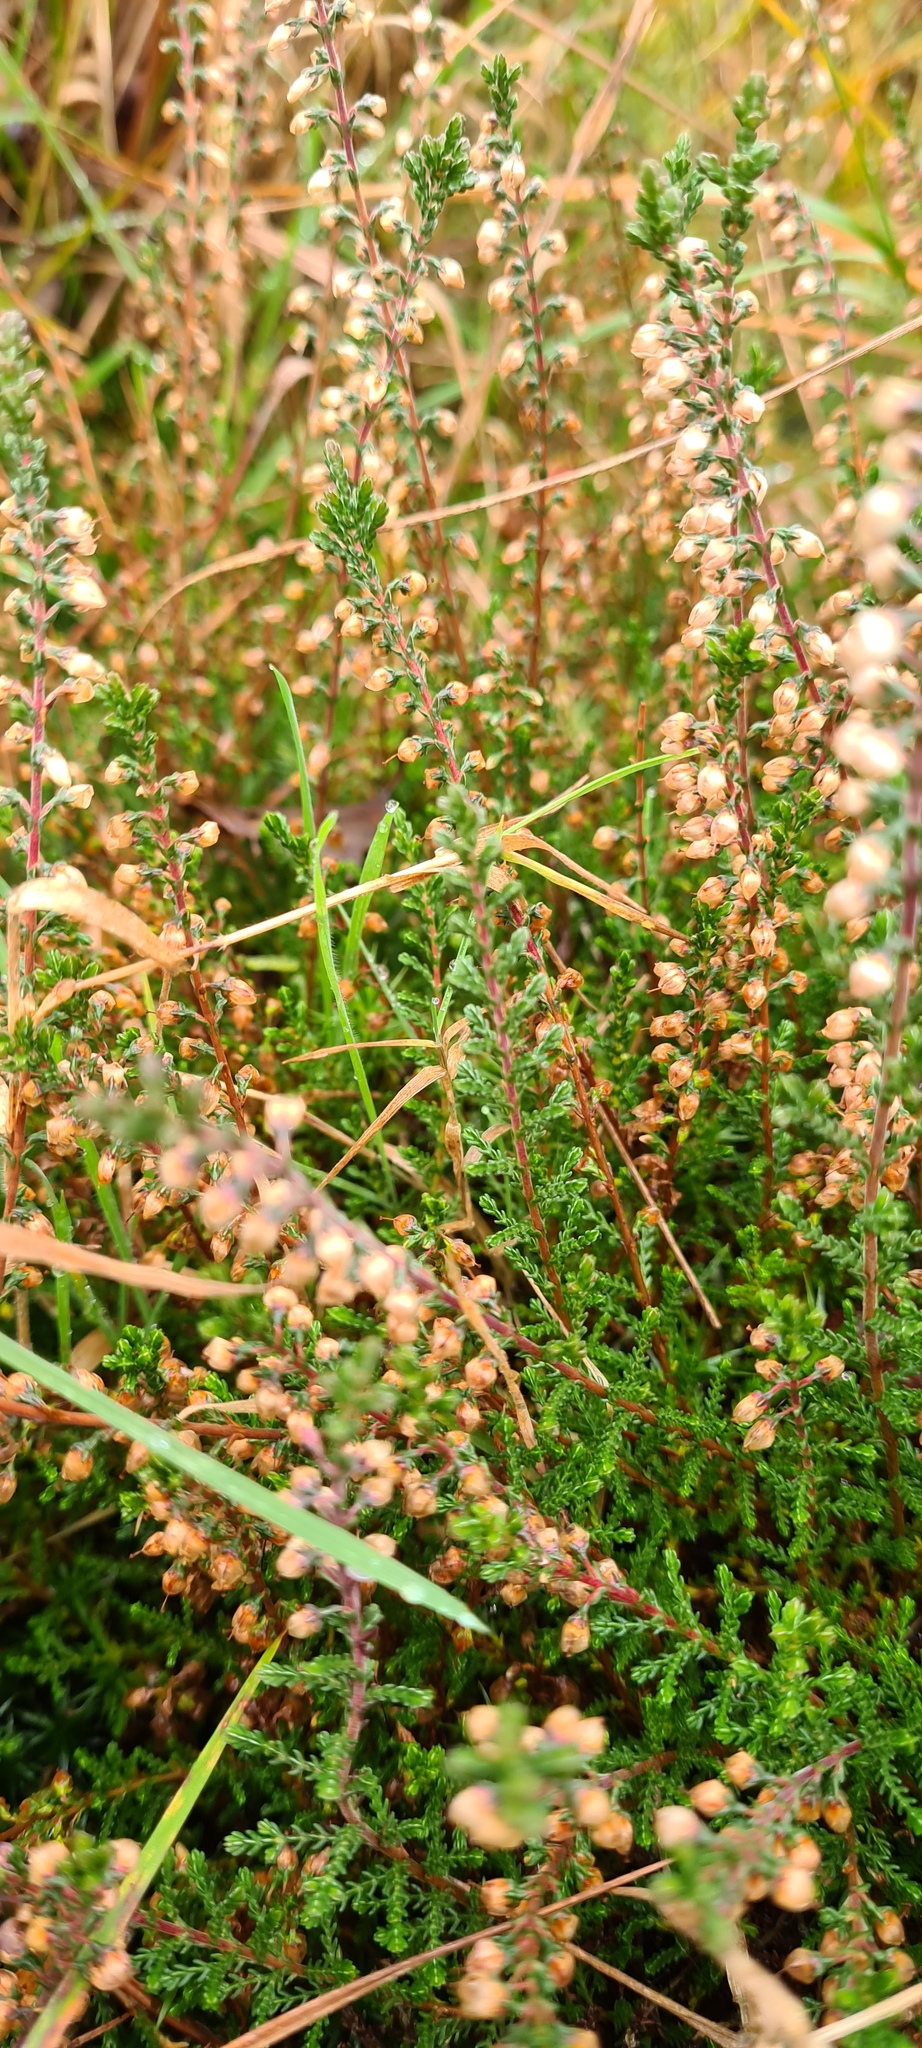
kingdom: Plantae
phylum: Tracheophyta
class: Magnoliopsida
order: Ericales
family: Ericaceae
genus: Calluna
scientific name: Calluna vulgaris
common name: Heather
